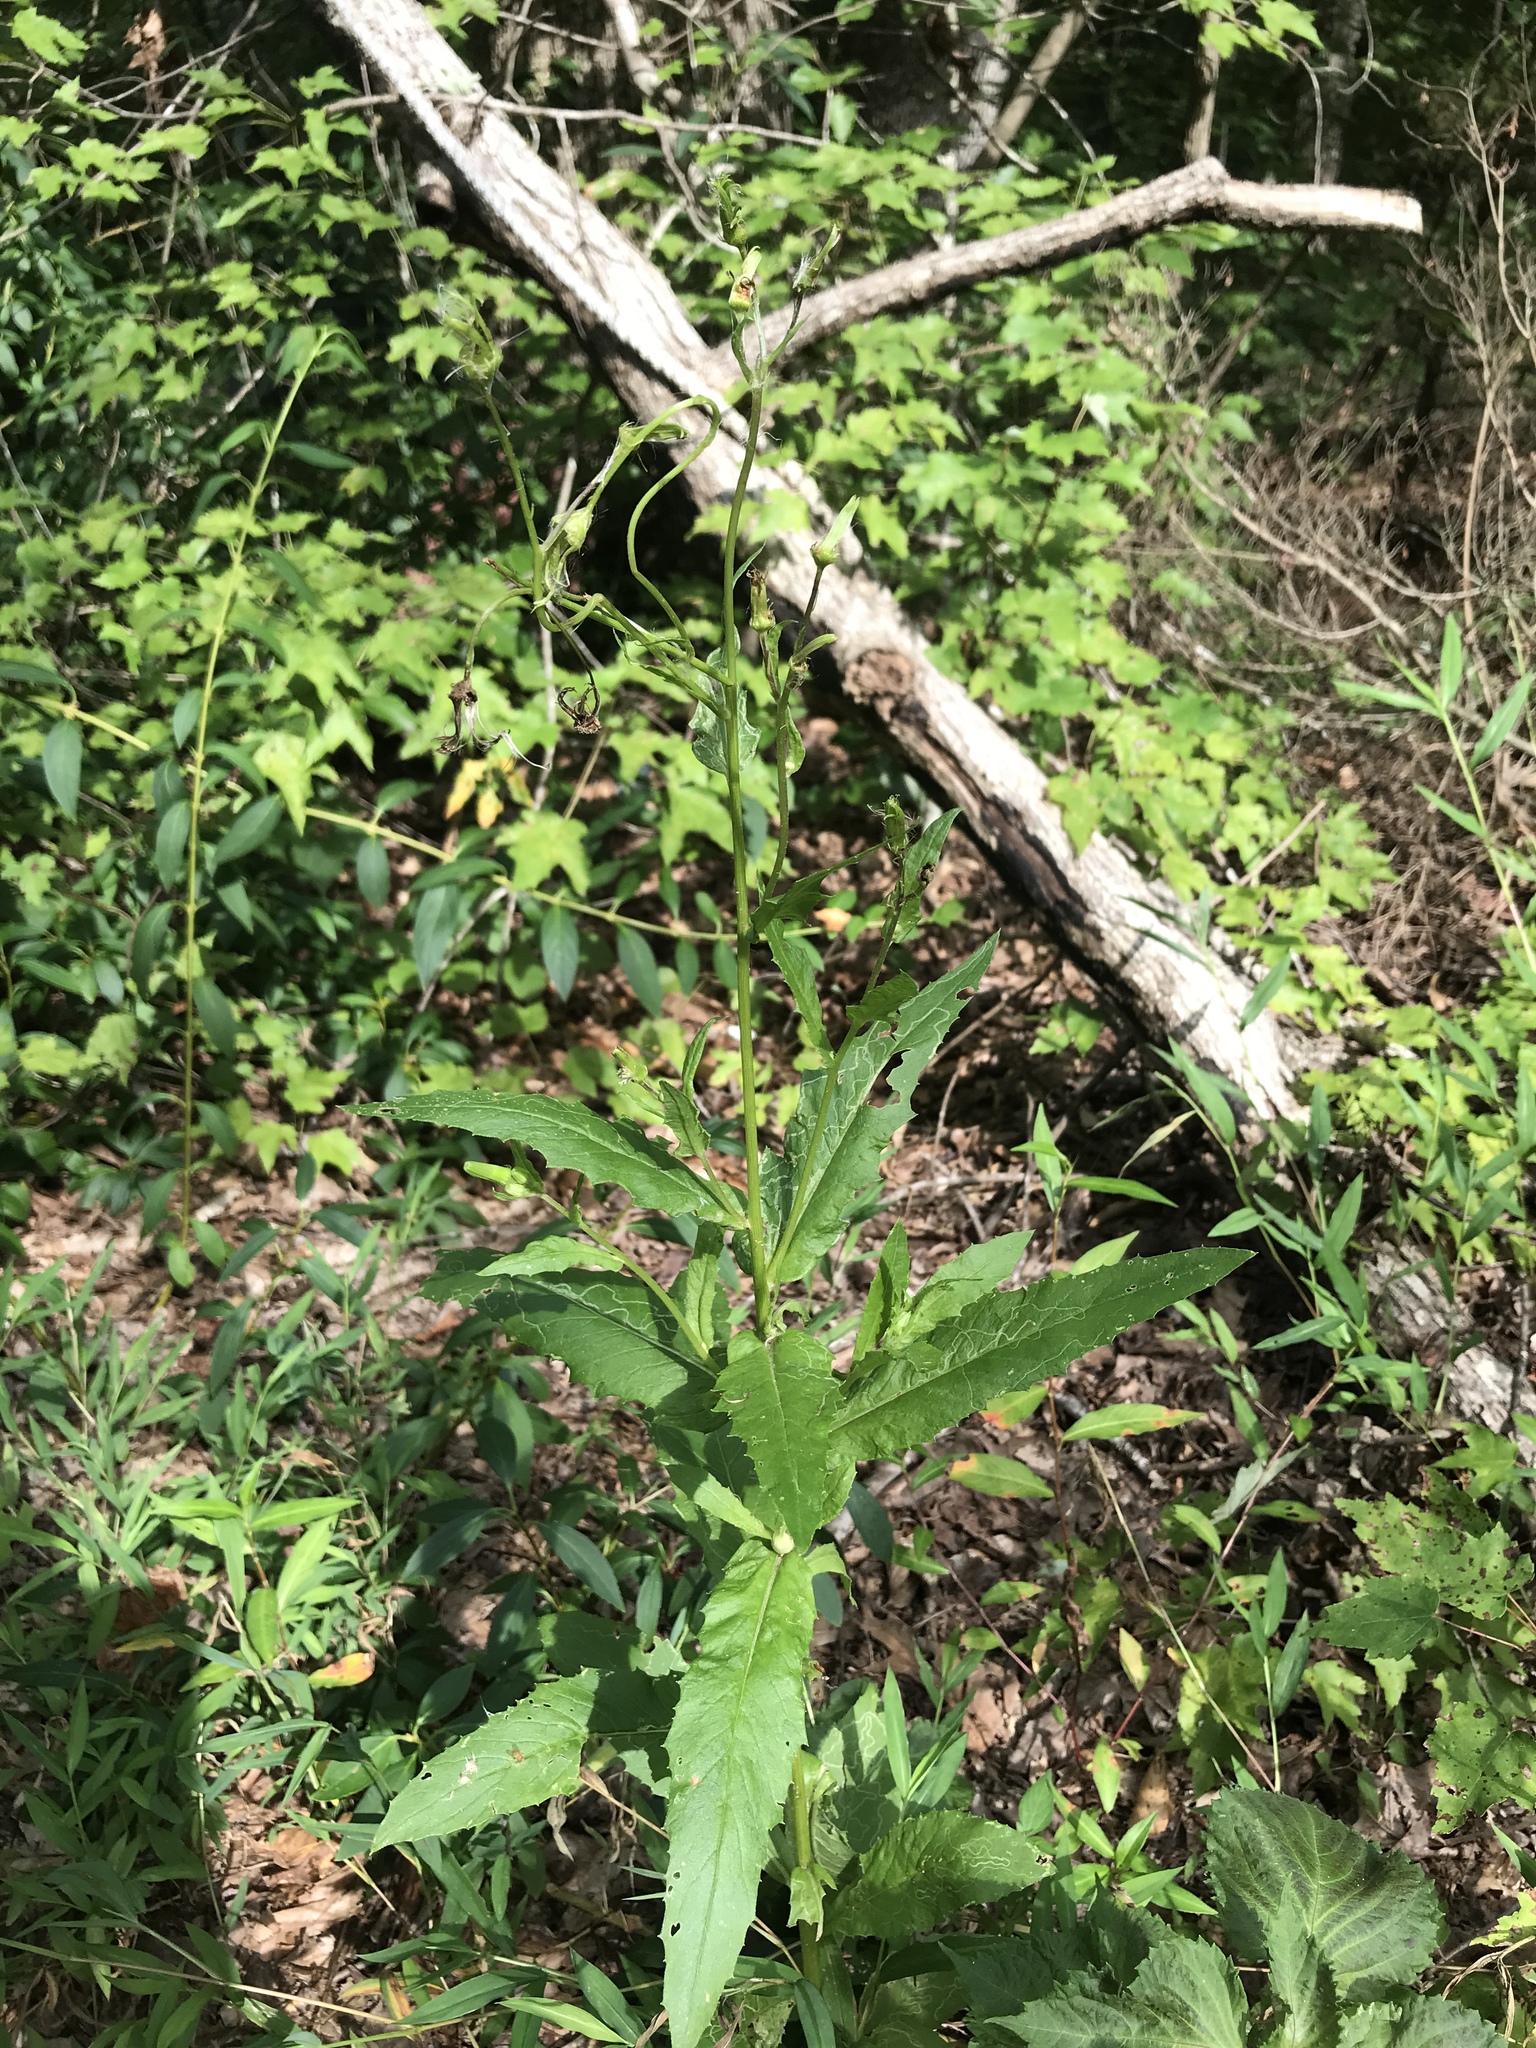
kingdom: Plantae
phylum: Tracheophyta
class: Magnoliopsida
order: Asterales
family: Asteraceae
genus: Erechtites
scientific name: Erechtites hieraciifolius
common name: American burnweed
